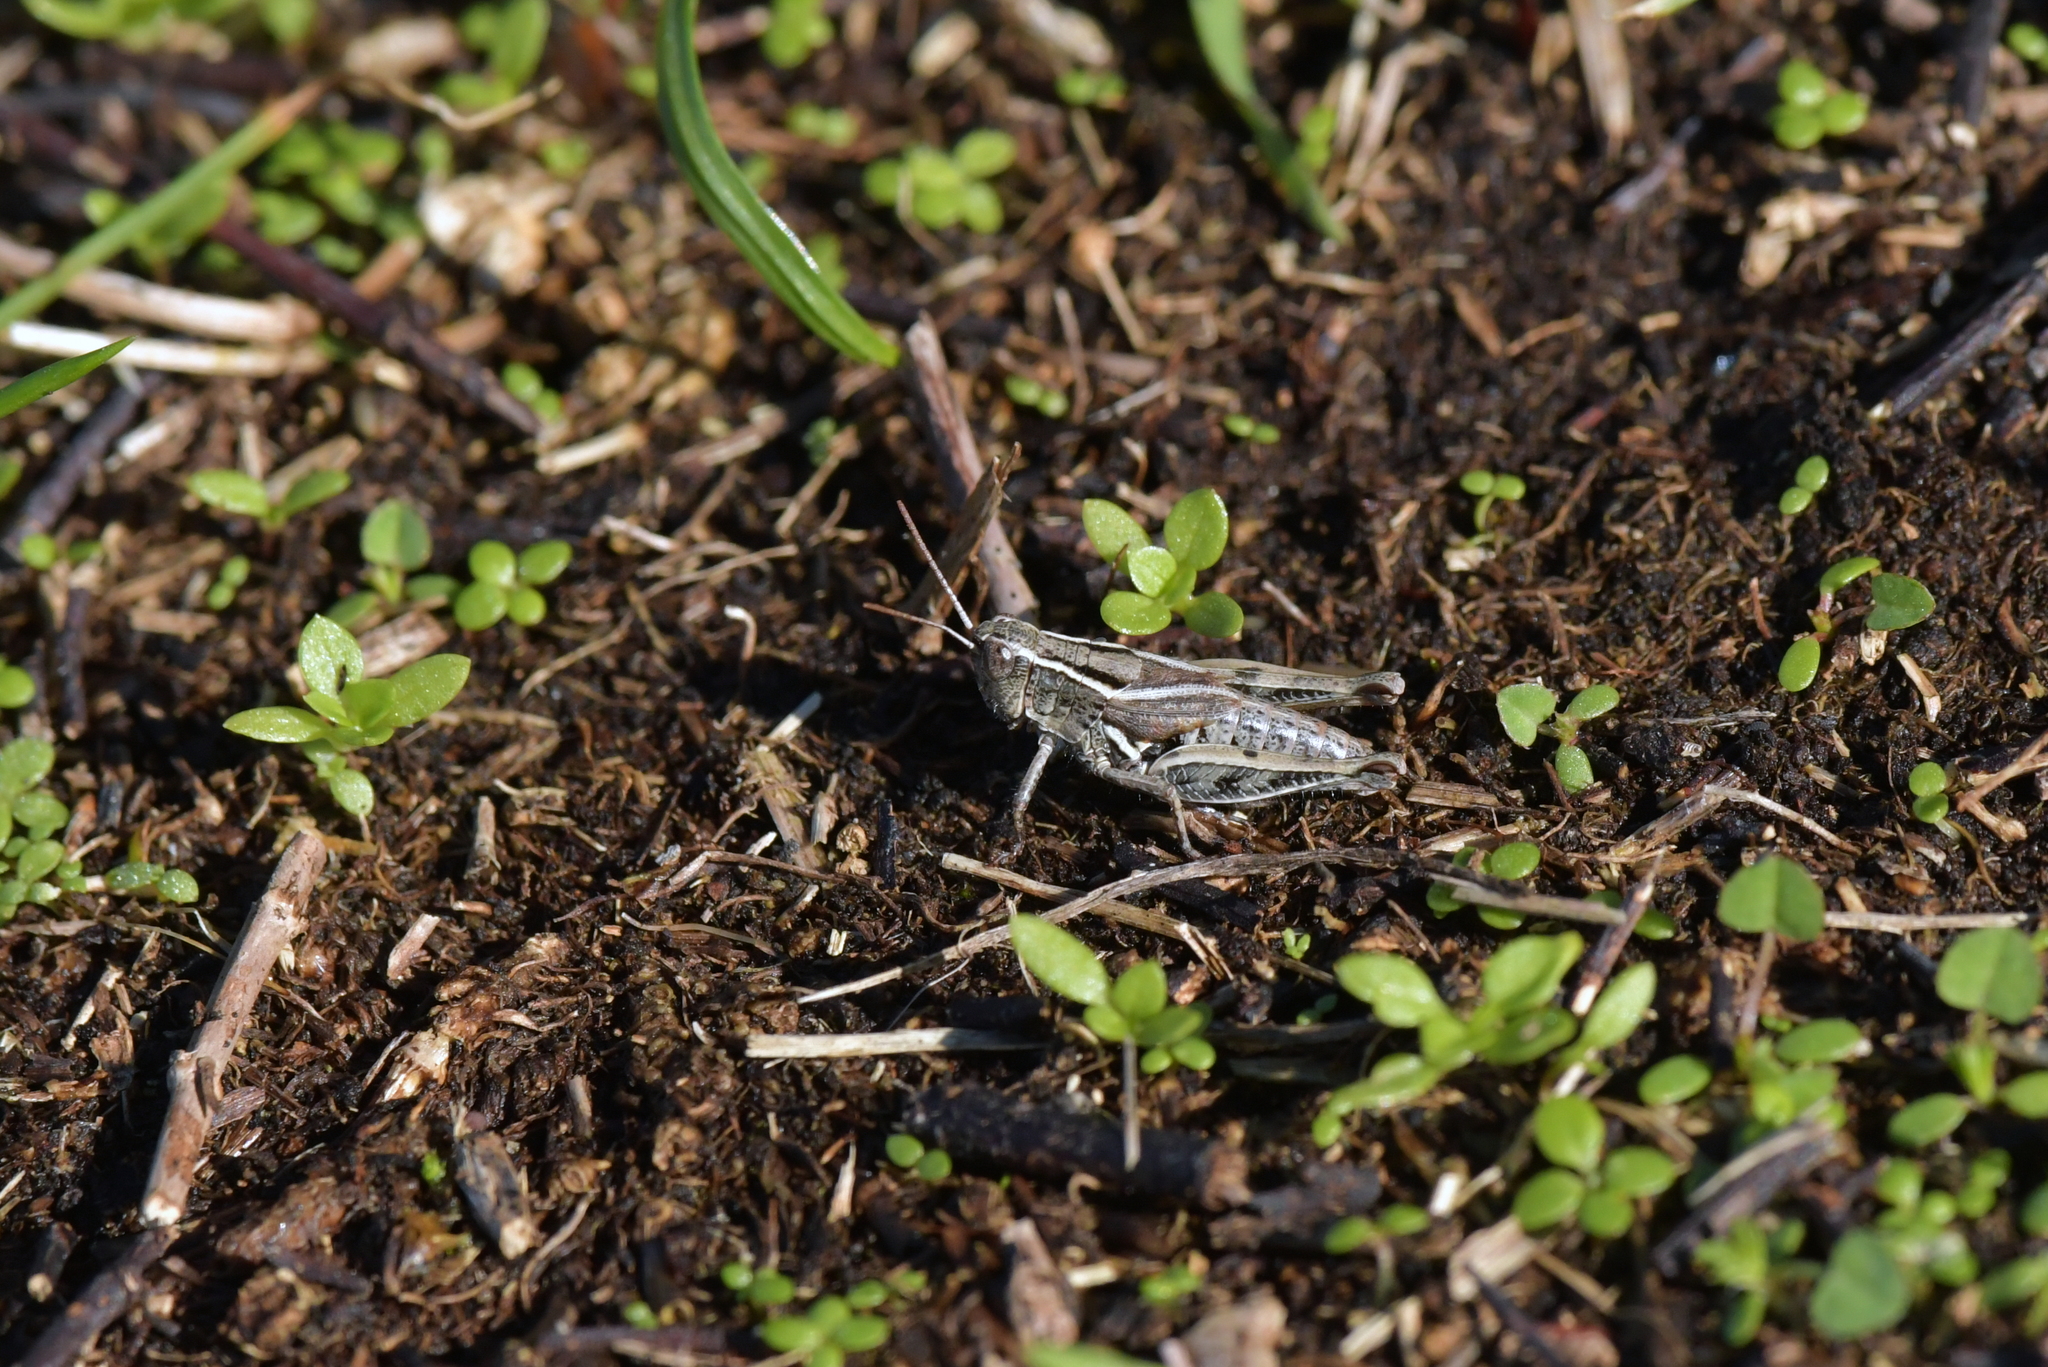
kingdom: Animalia
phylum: Arthropoda
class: Insecta
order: Orthoptera
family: Acrididae
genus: Phaulacridium
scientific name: Phaulacridium marginale
